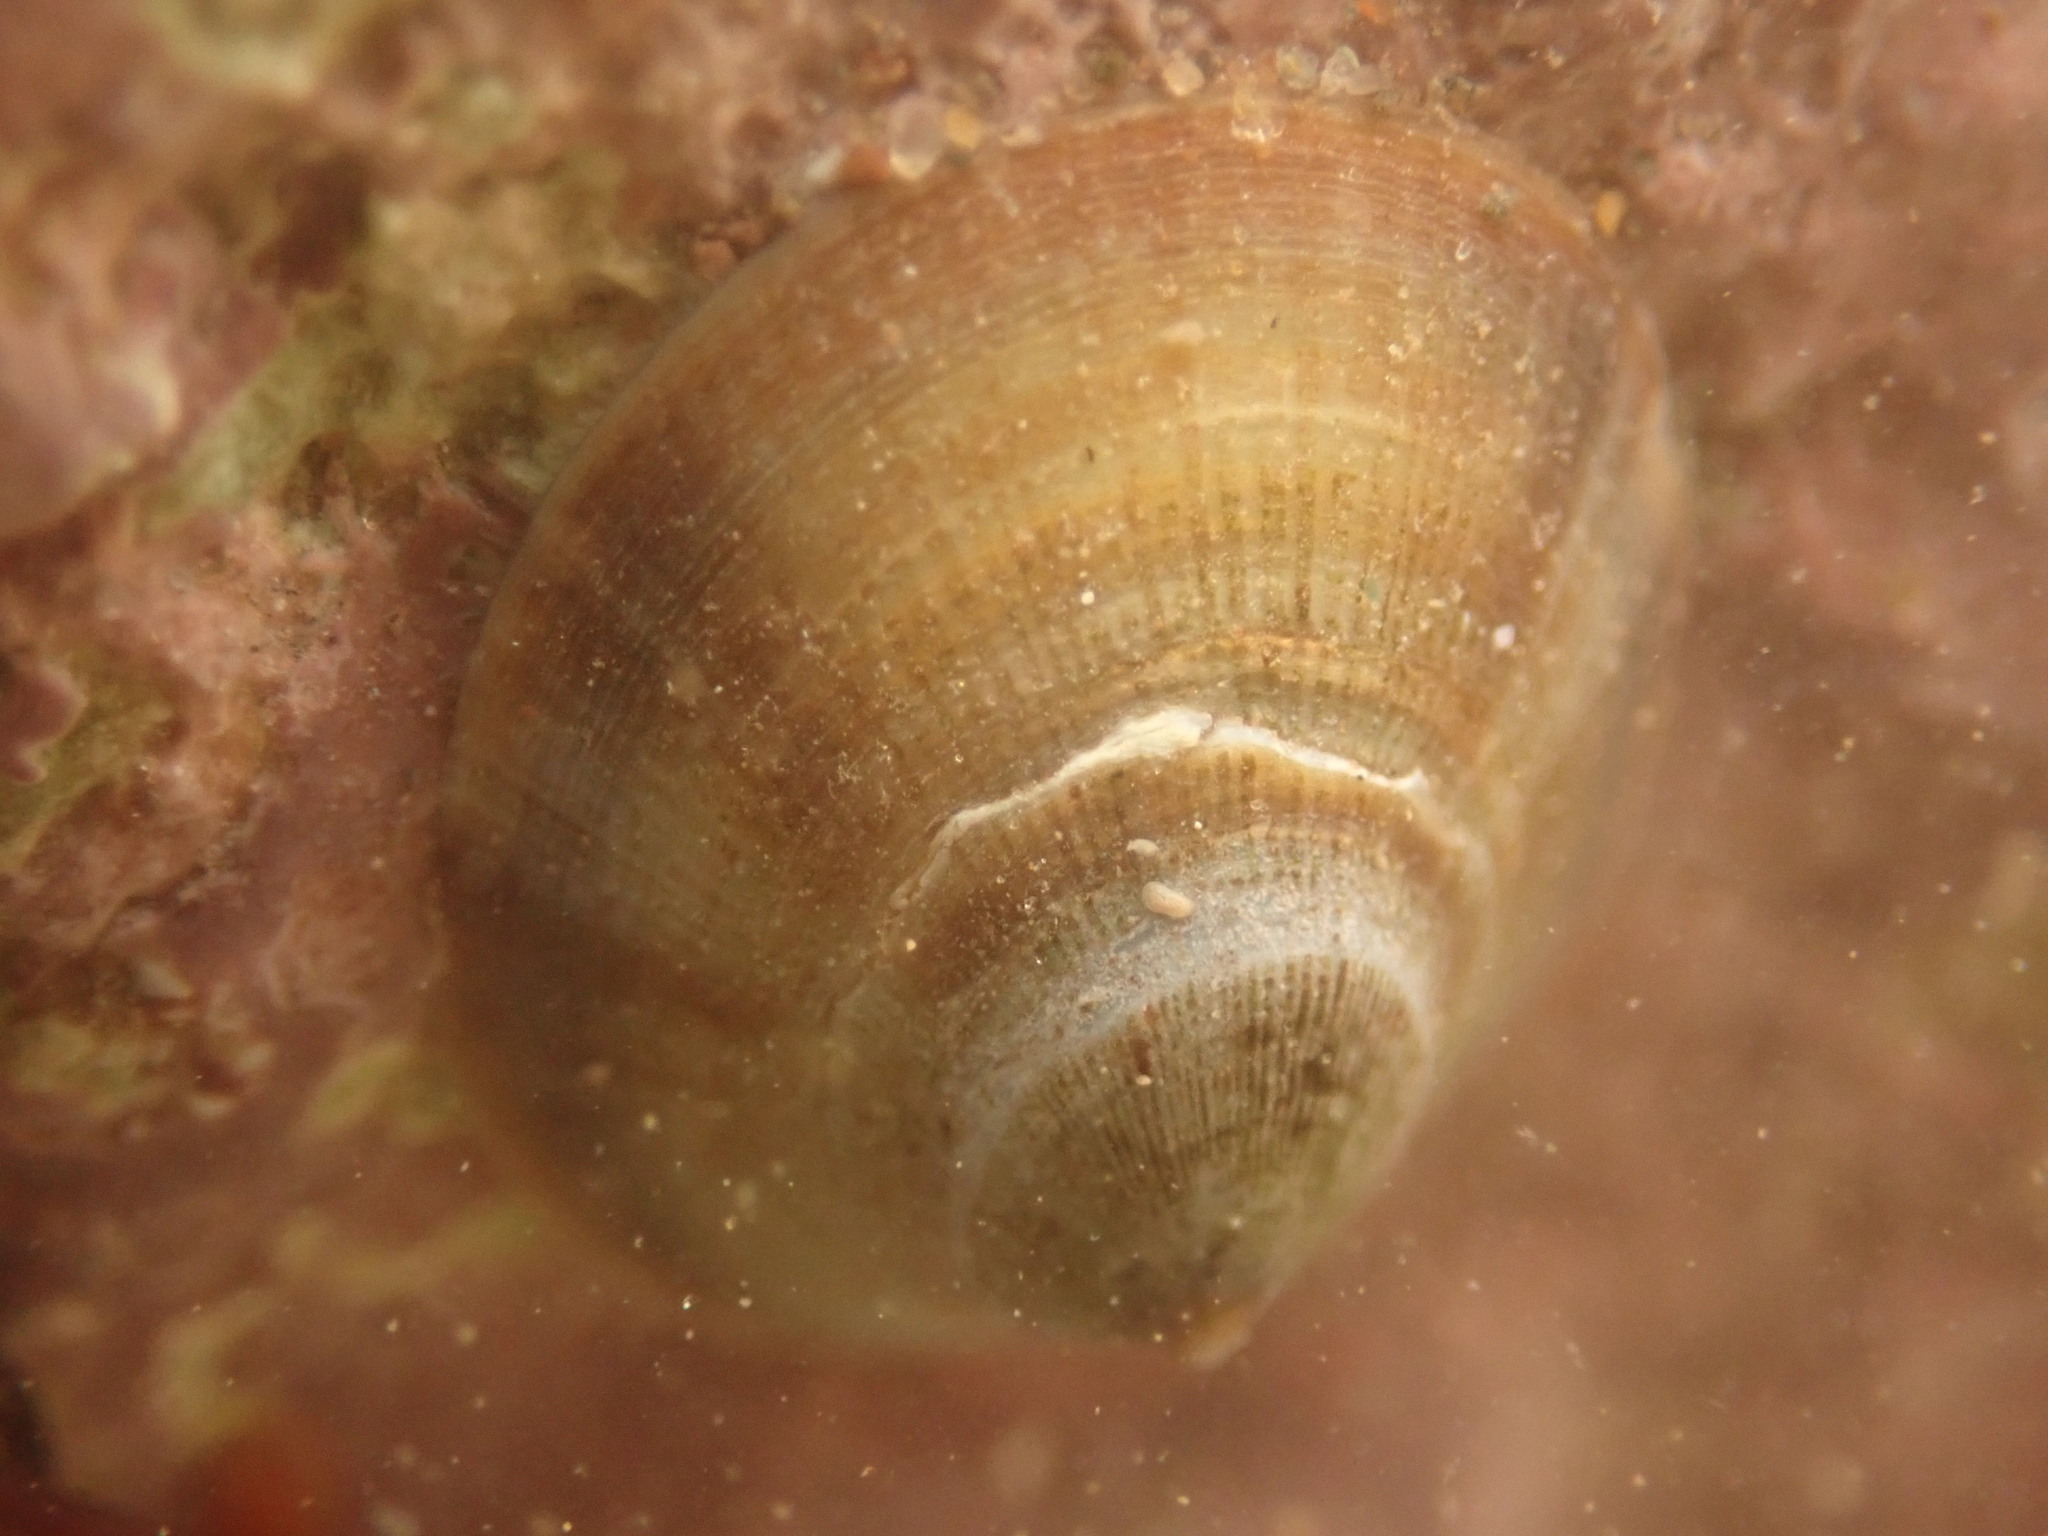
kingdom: Animalia
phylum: Mollusca
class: Gastropoda
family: Lottiidae
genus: Testudinalia
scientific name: Testudinalia testudinalis
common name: Common tortoiseshell limpet
